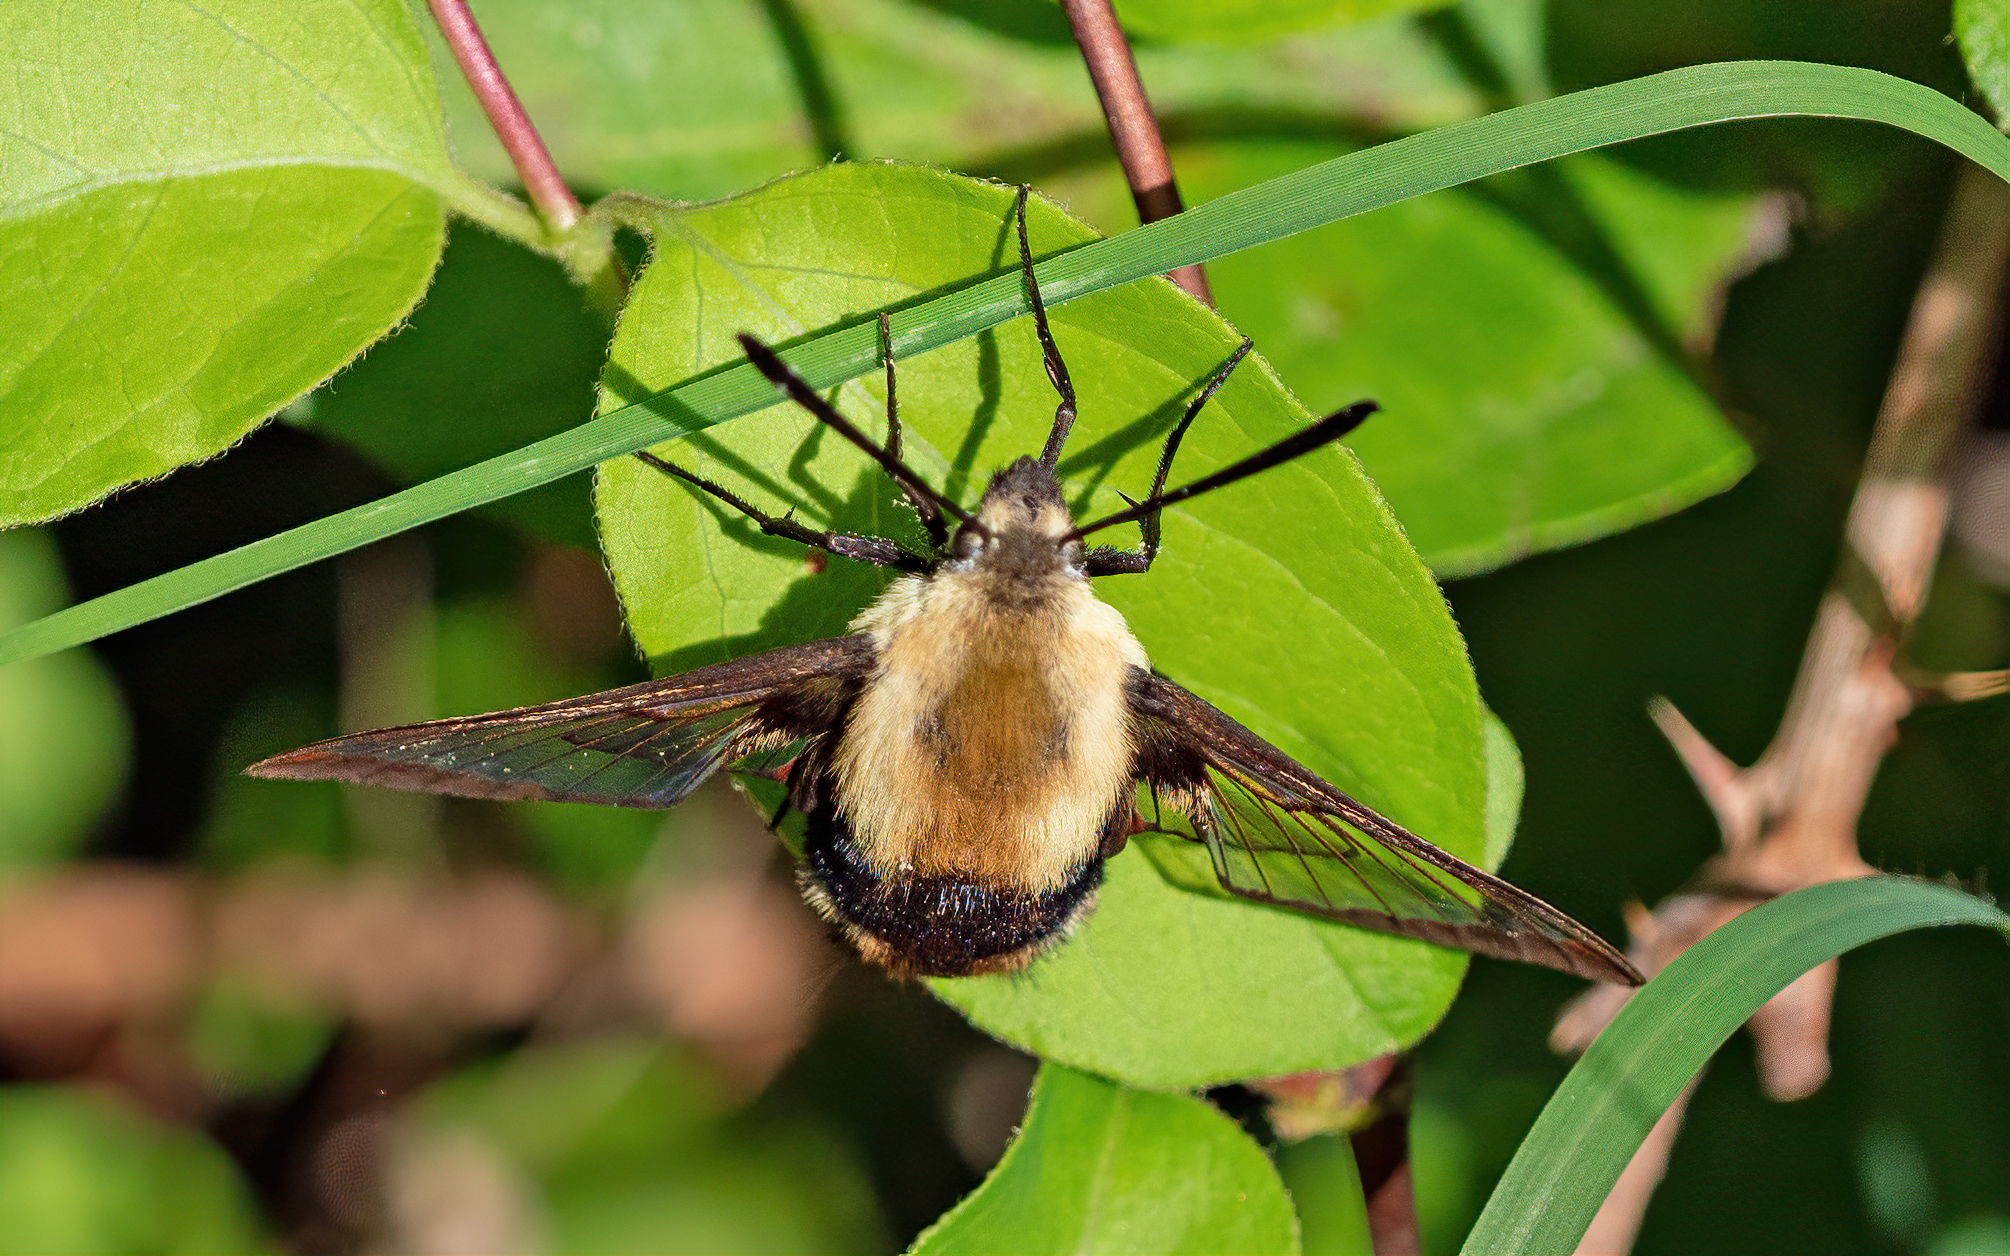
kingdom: Animalia
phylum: Arthropoda
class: Insecta
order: Lepidoptera
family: Sphingidae
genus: Hemaris
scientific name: Hemaris diffinis
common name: Bumblebee moth
